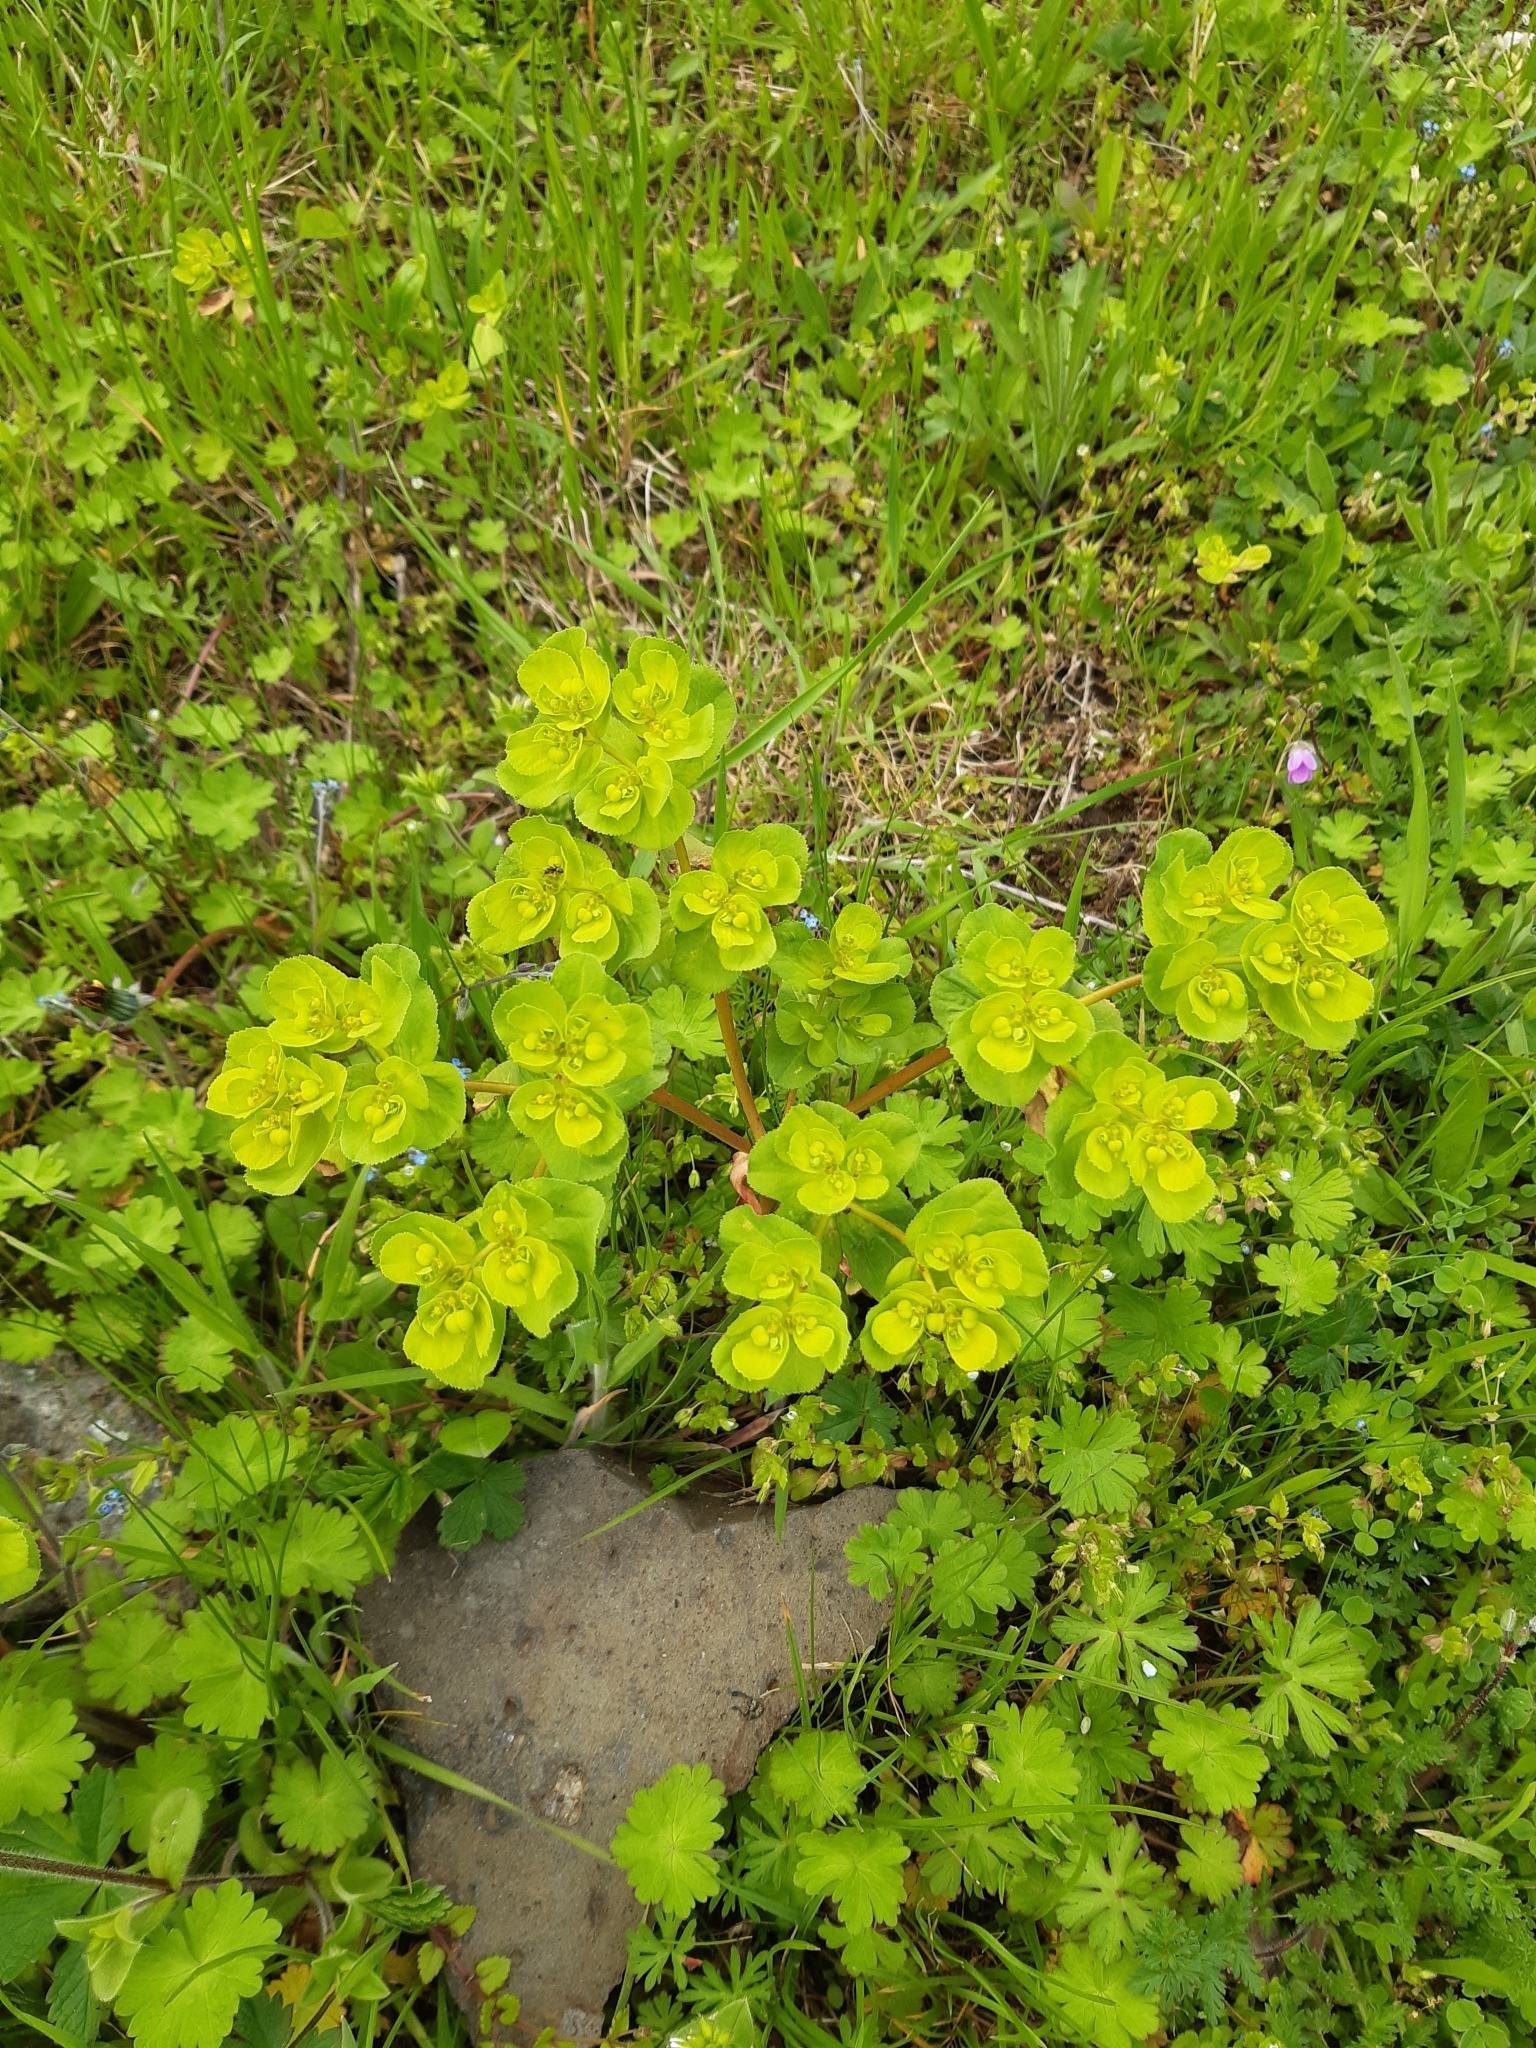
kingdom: Plantae
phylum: Tracheophyta
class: Magnoliopsida
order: Malpighiales
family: Euphorbiaceae
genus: Euphorbia
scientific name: Euphorbia helioscopia
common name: Sun spurge
